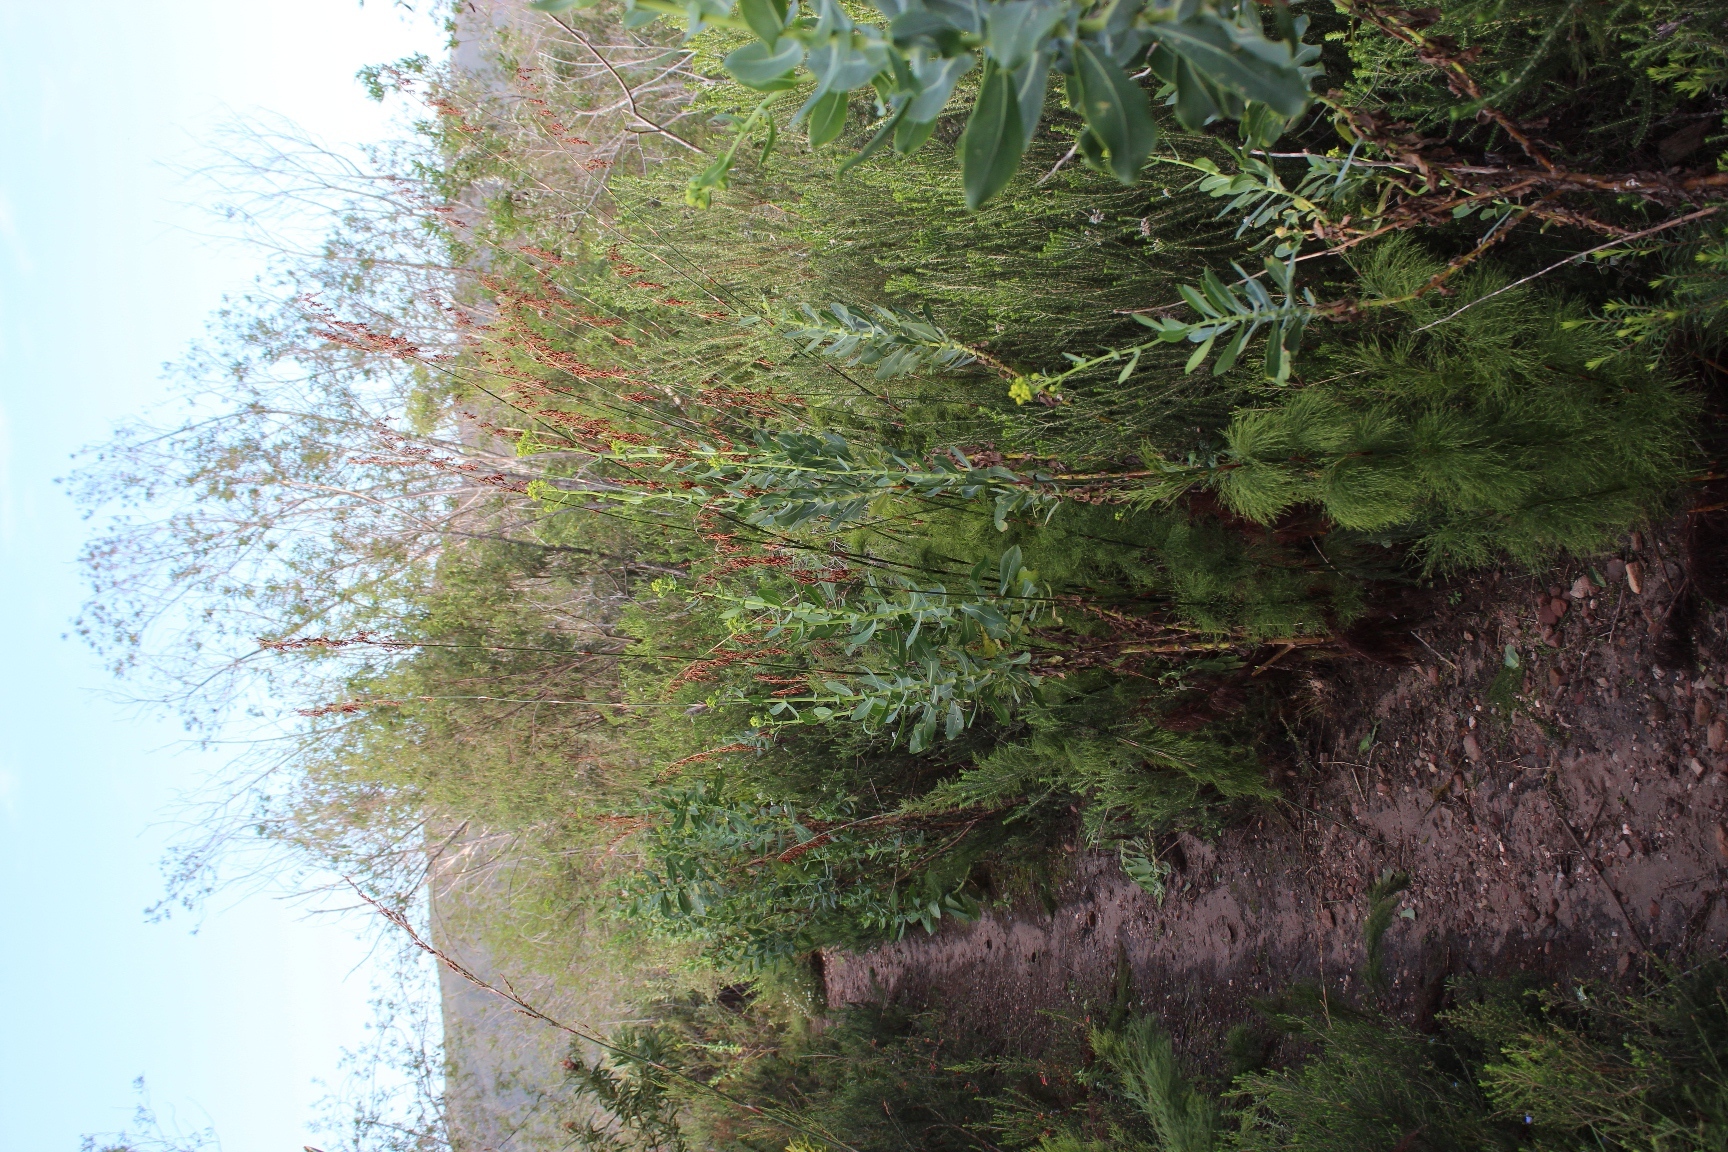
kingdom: Plantae
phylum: Tracheophyta
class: Magnoliopsida
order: Asterales
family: Asteraceae
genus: Othonna
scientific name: Othonna parviflora
